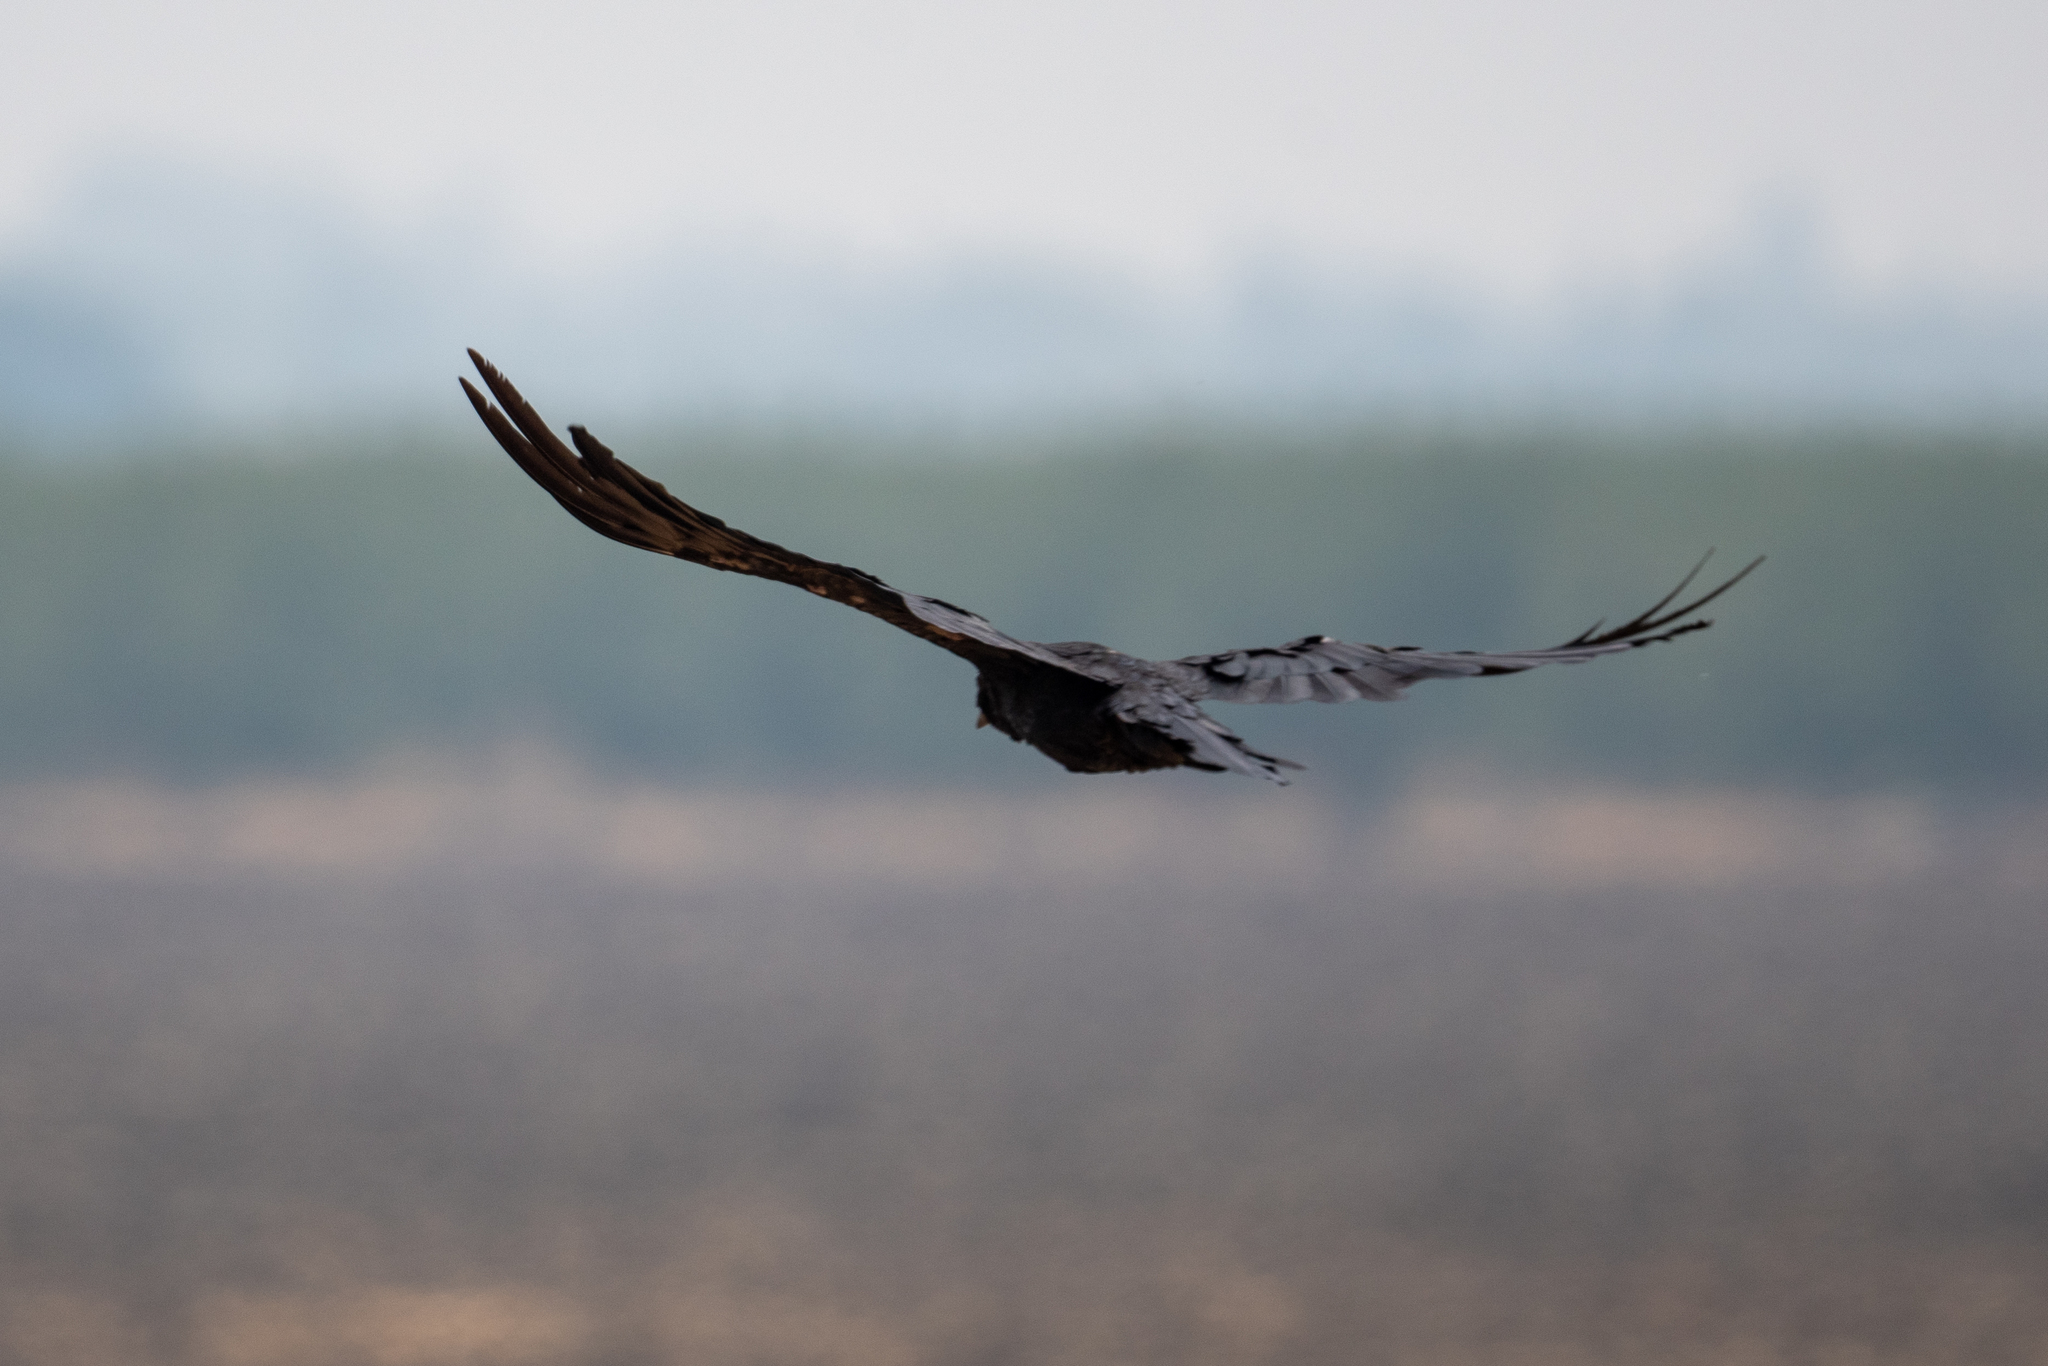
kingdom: Animalia
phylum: Chordata
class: Aves
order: Accipitriformes
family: Cathartidae
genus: Cathartes
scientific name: Cathartes aura
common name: Turkey vulture
